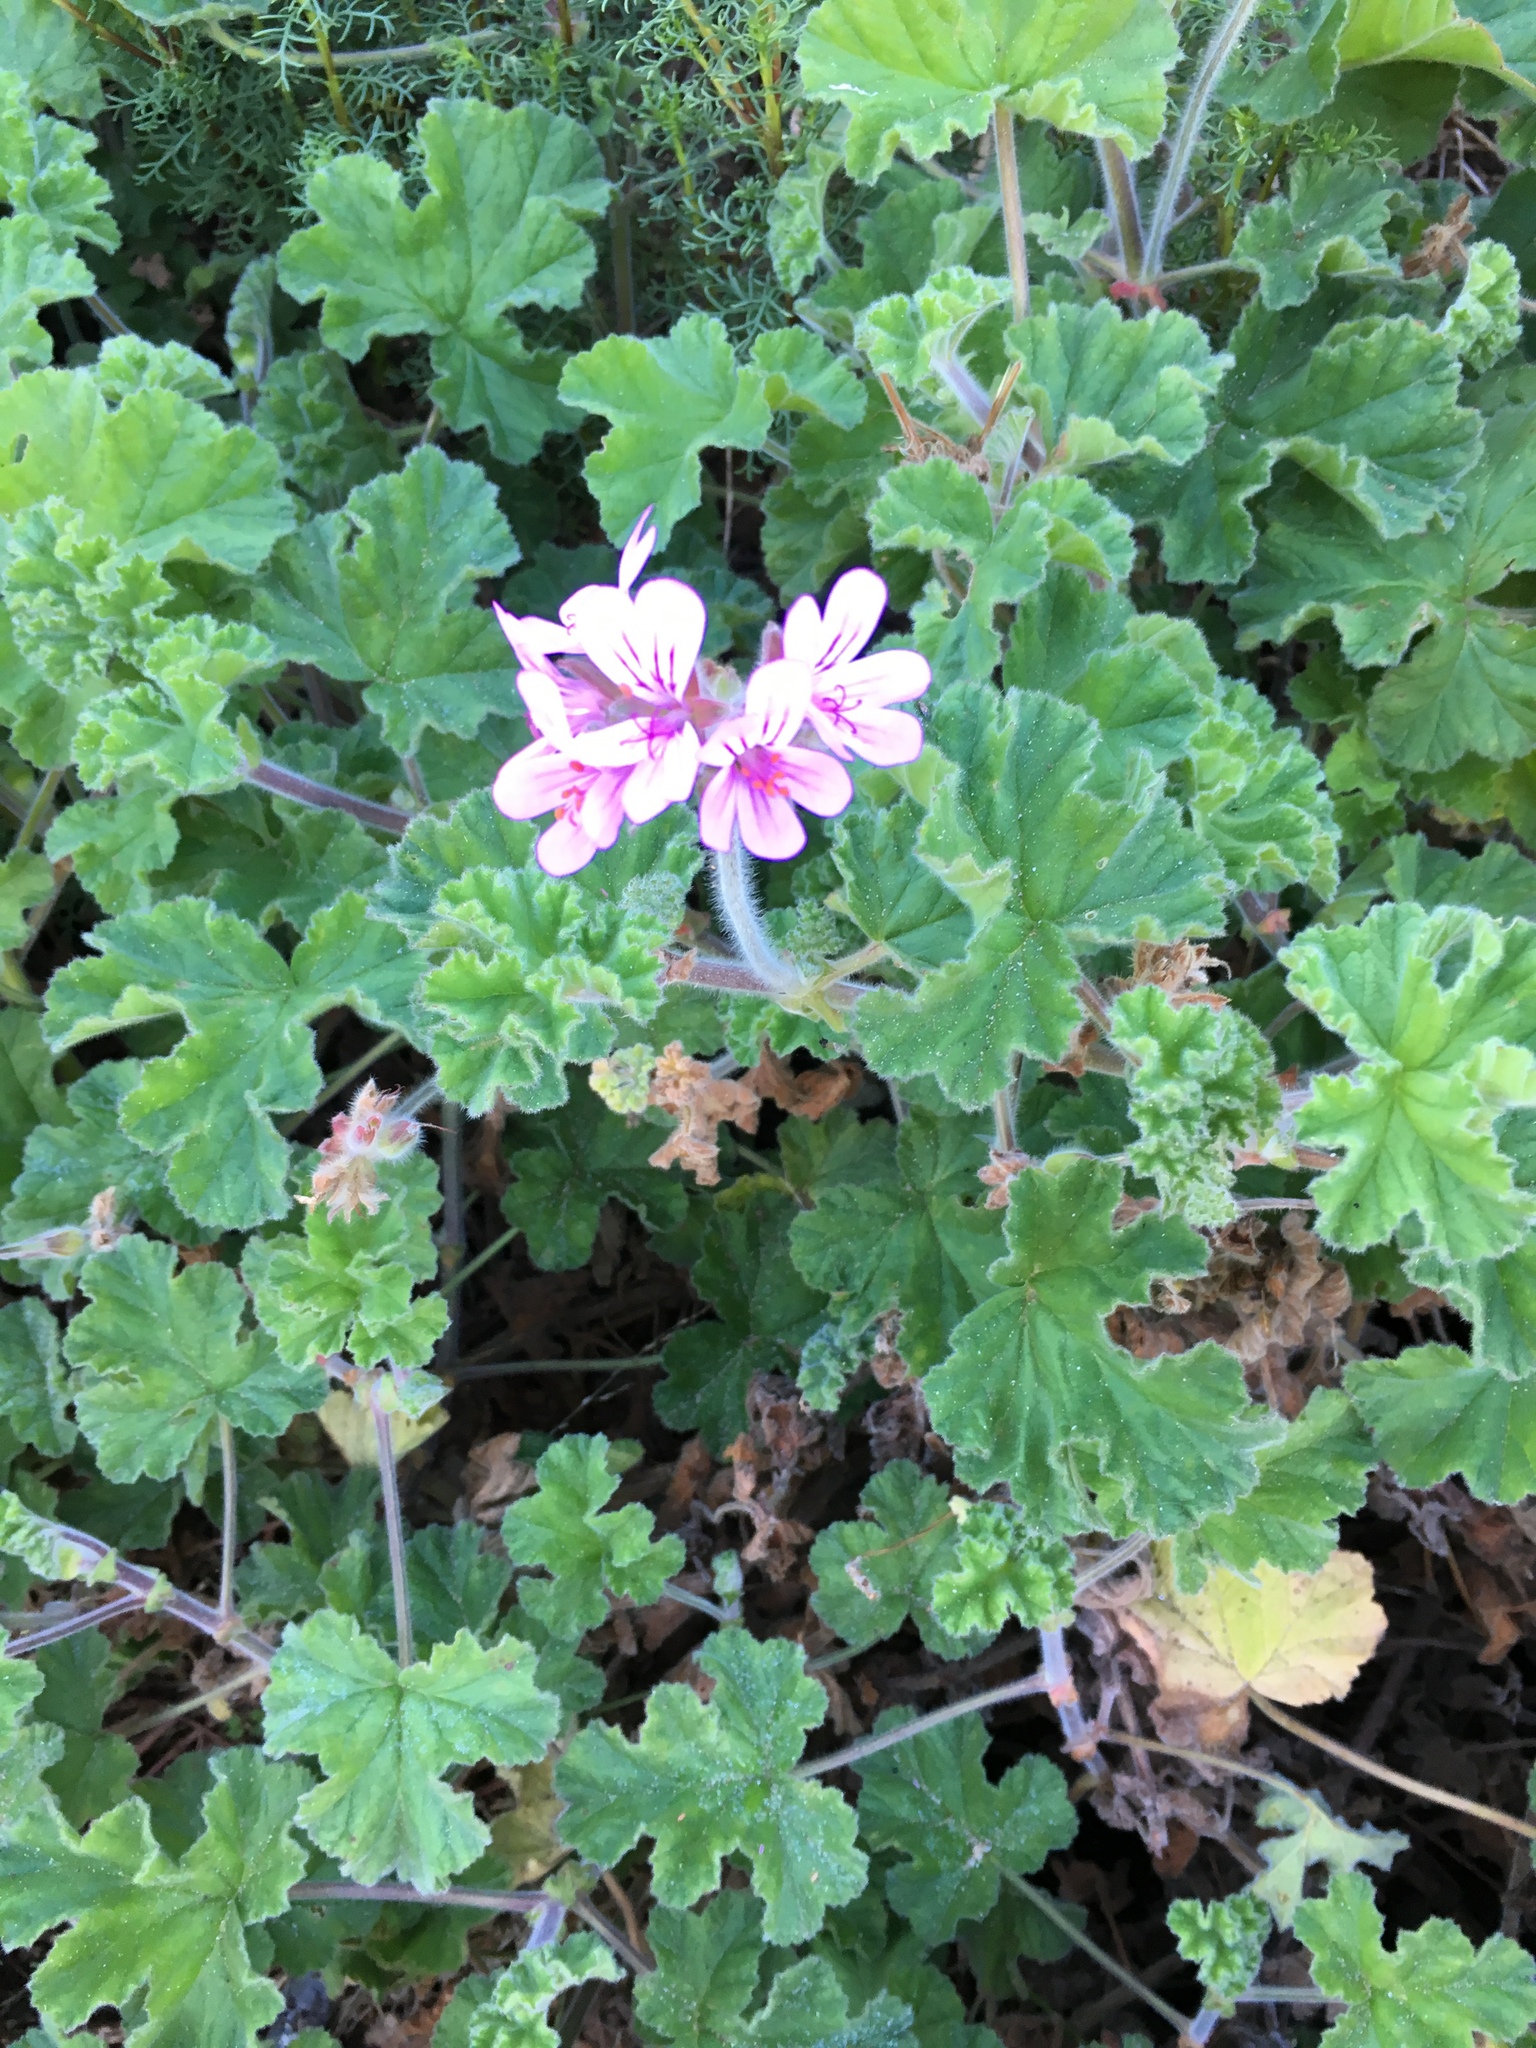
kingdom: Plantae
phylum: Tracheophyta
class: Magnoliopsida
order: Geraniales
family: Geraniaceae
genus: Pelargonium
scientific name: Pelargonium capitatum
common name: Rose scented geranium
